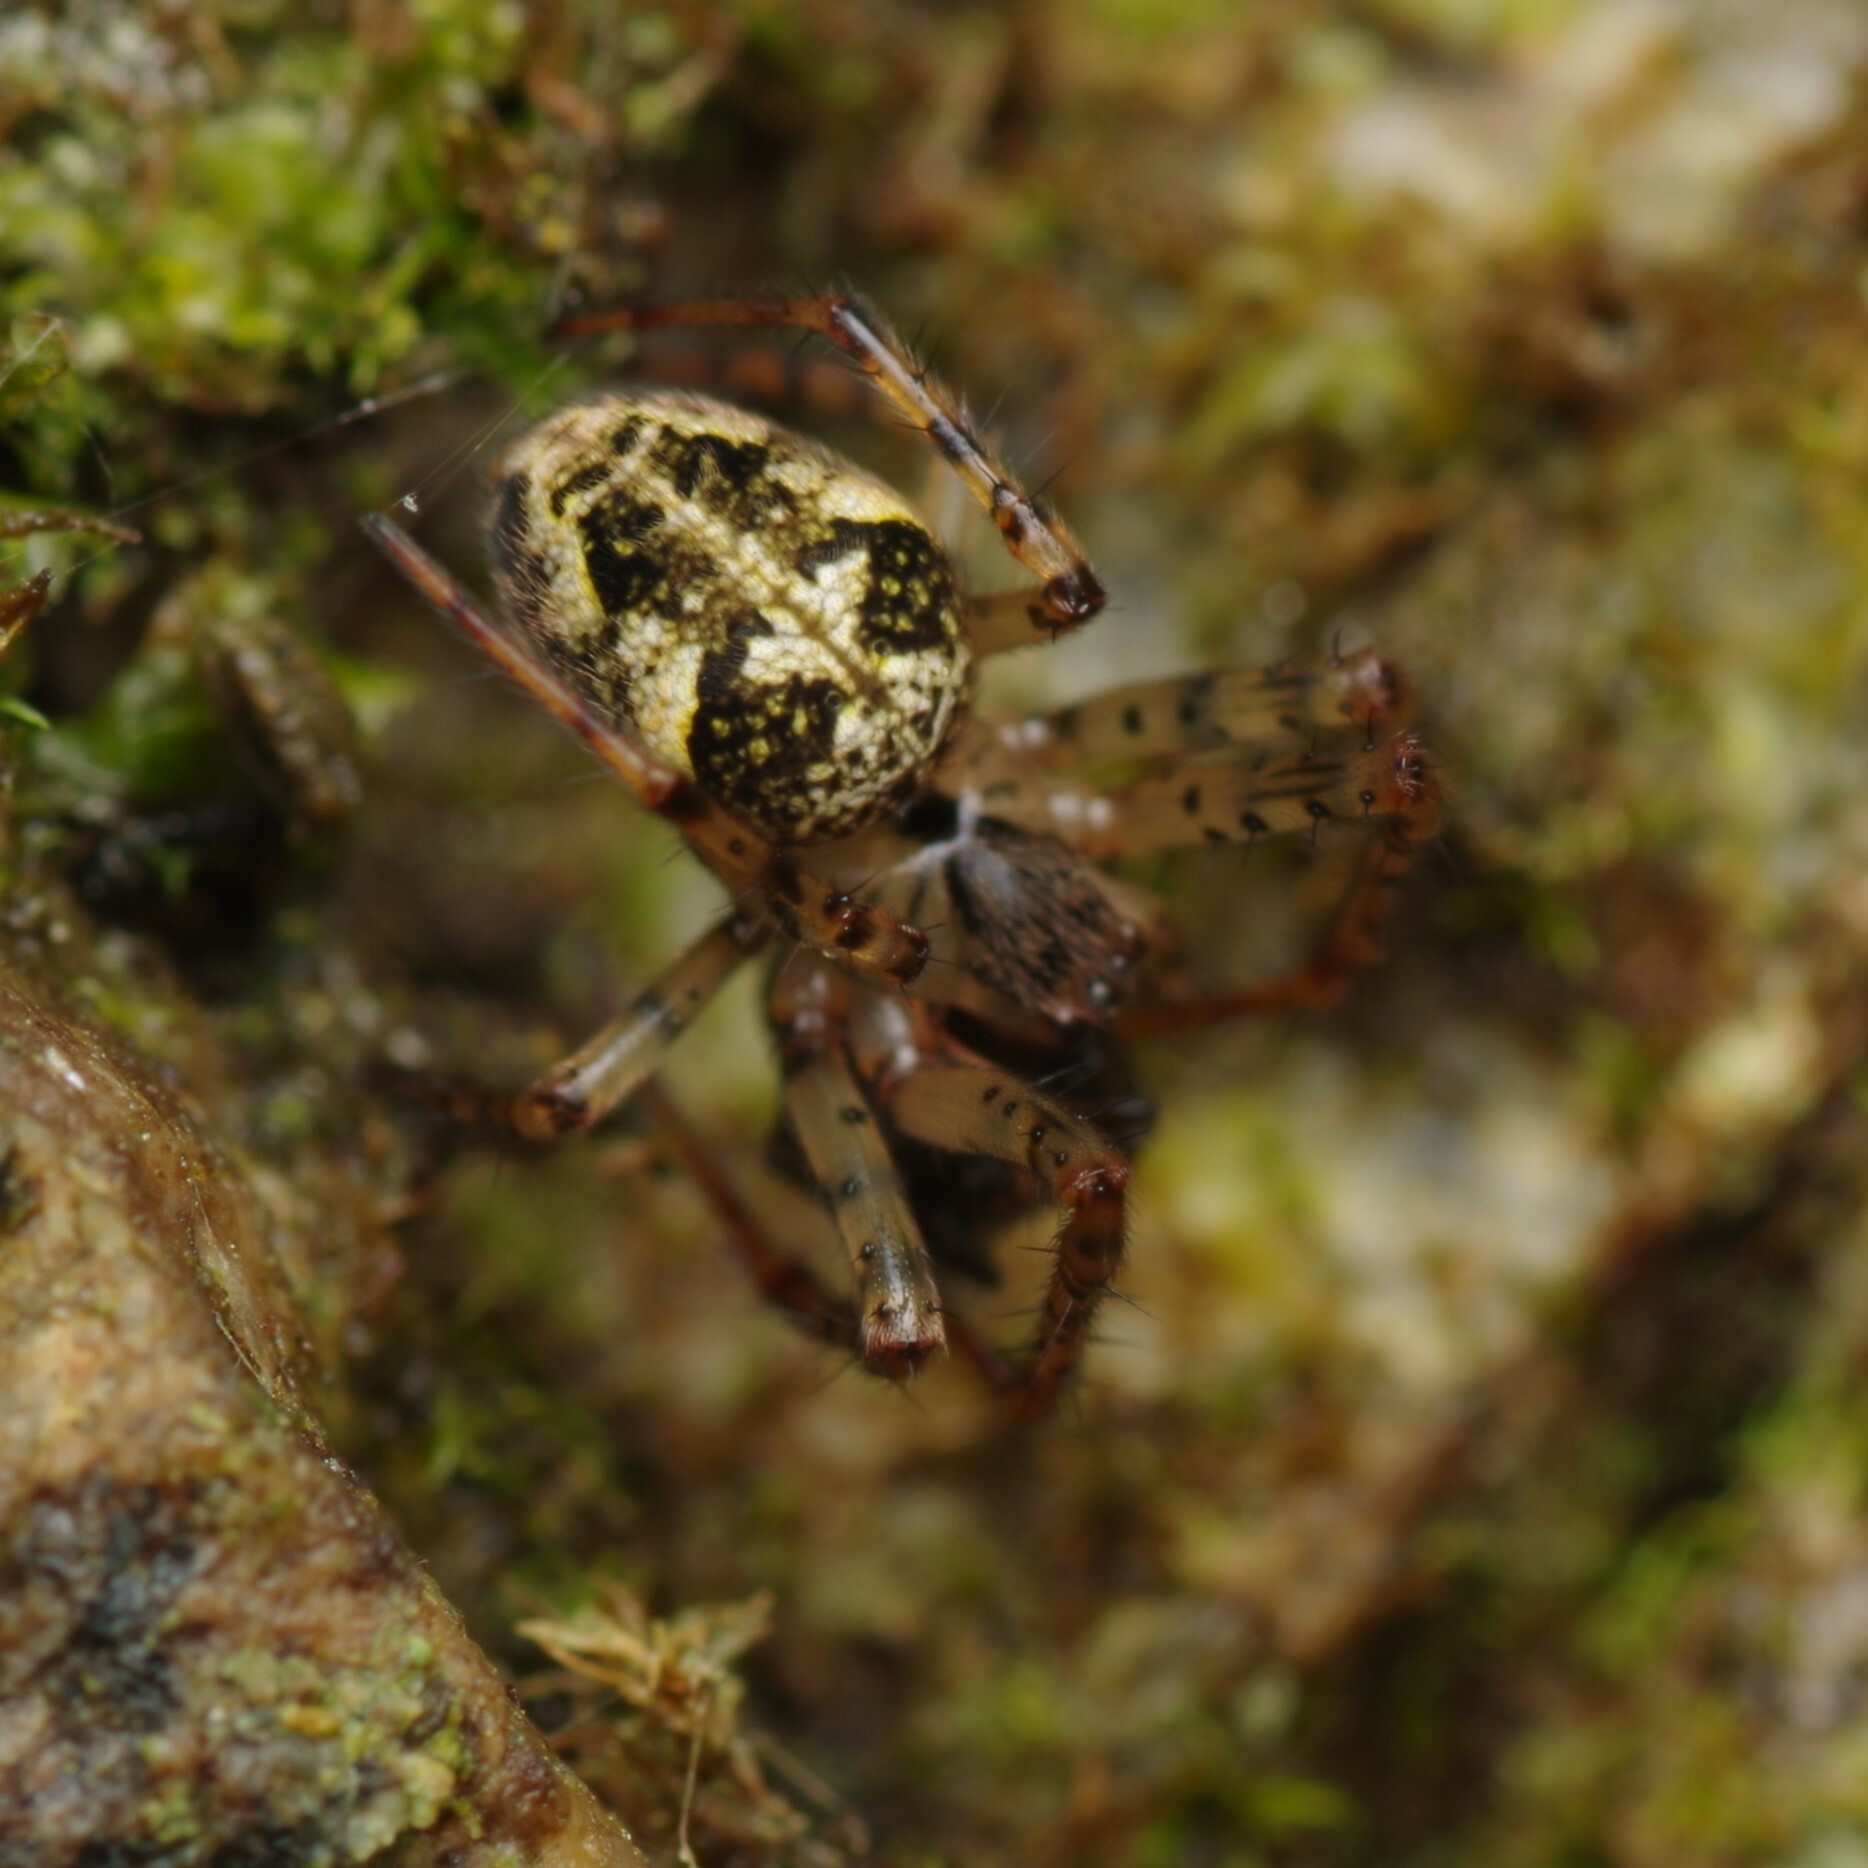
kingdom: Animalia
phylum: Arthropoda
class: Arachnida
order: Araneae
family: Tetragnathidae
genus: Metellina
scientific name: Metellina merianae
